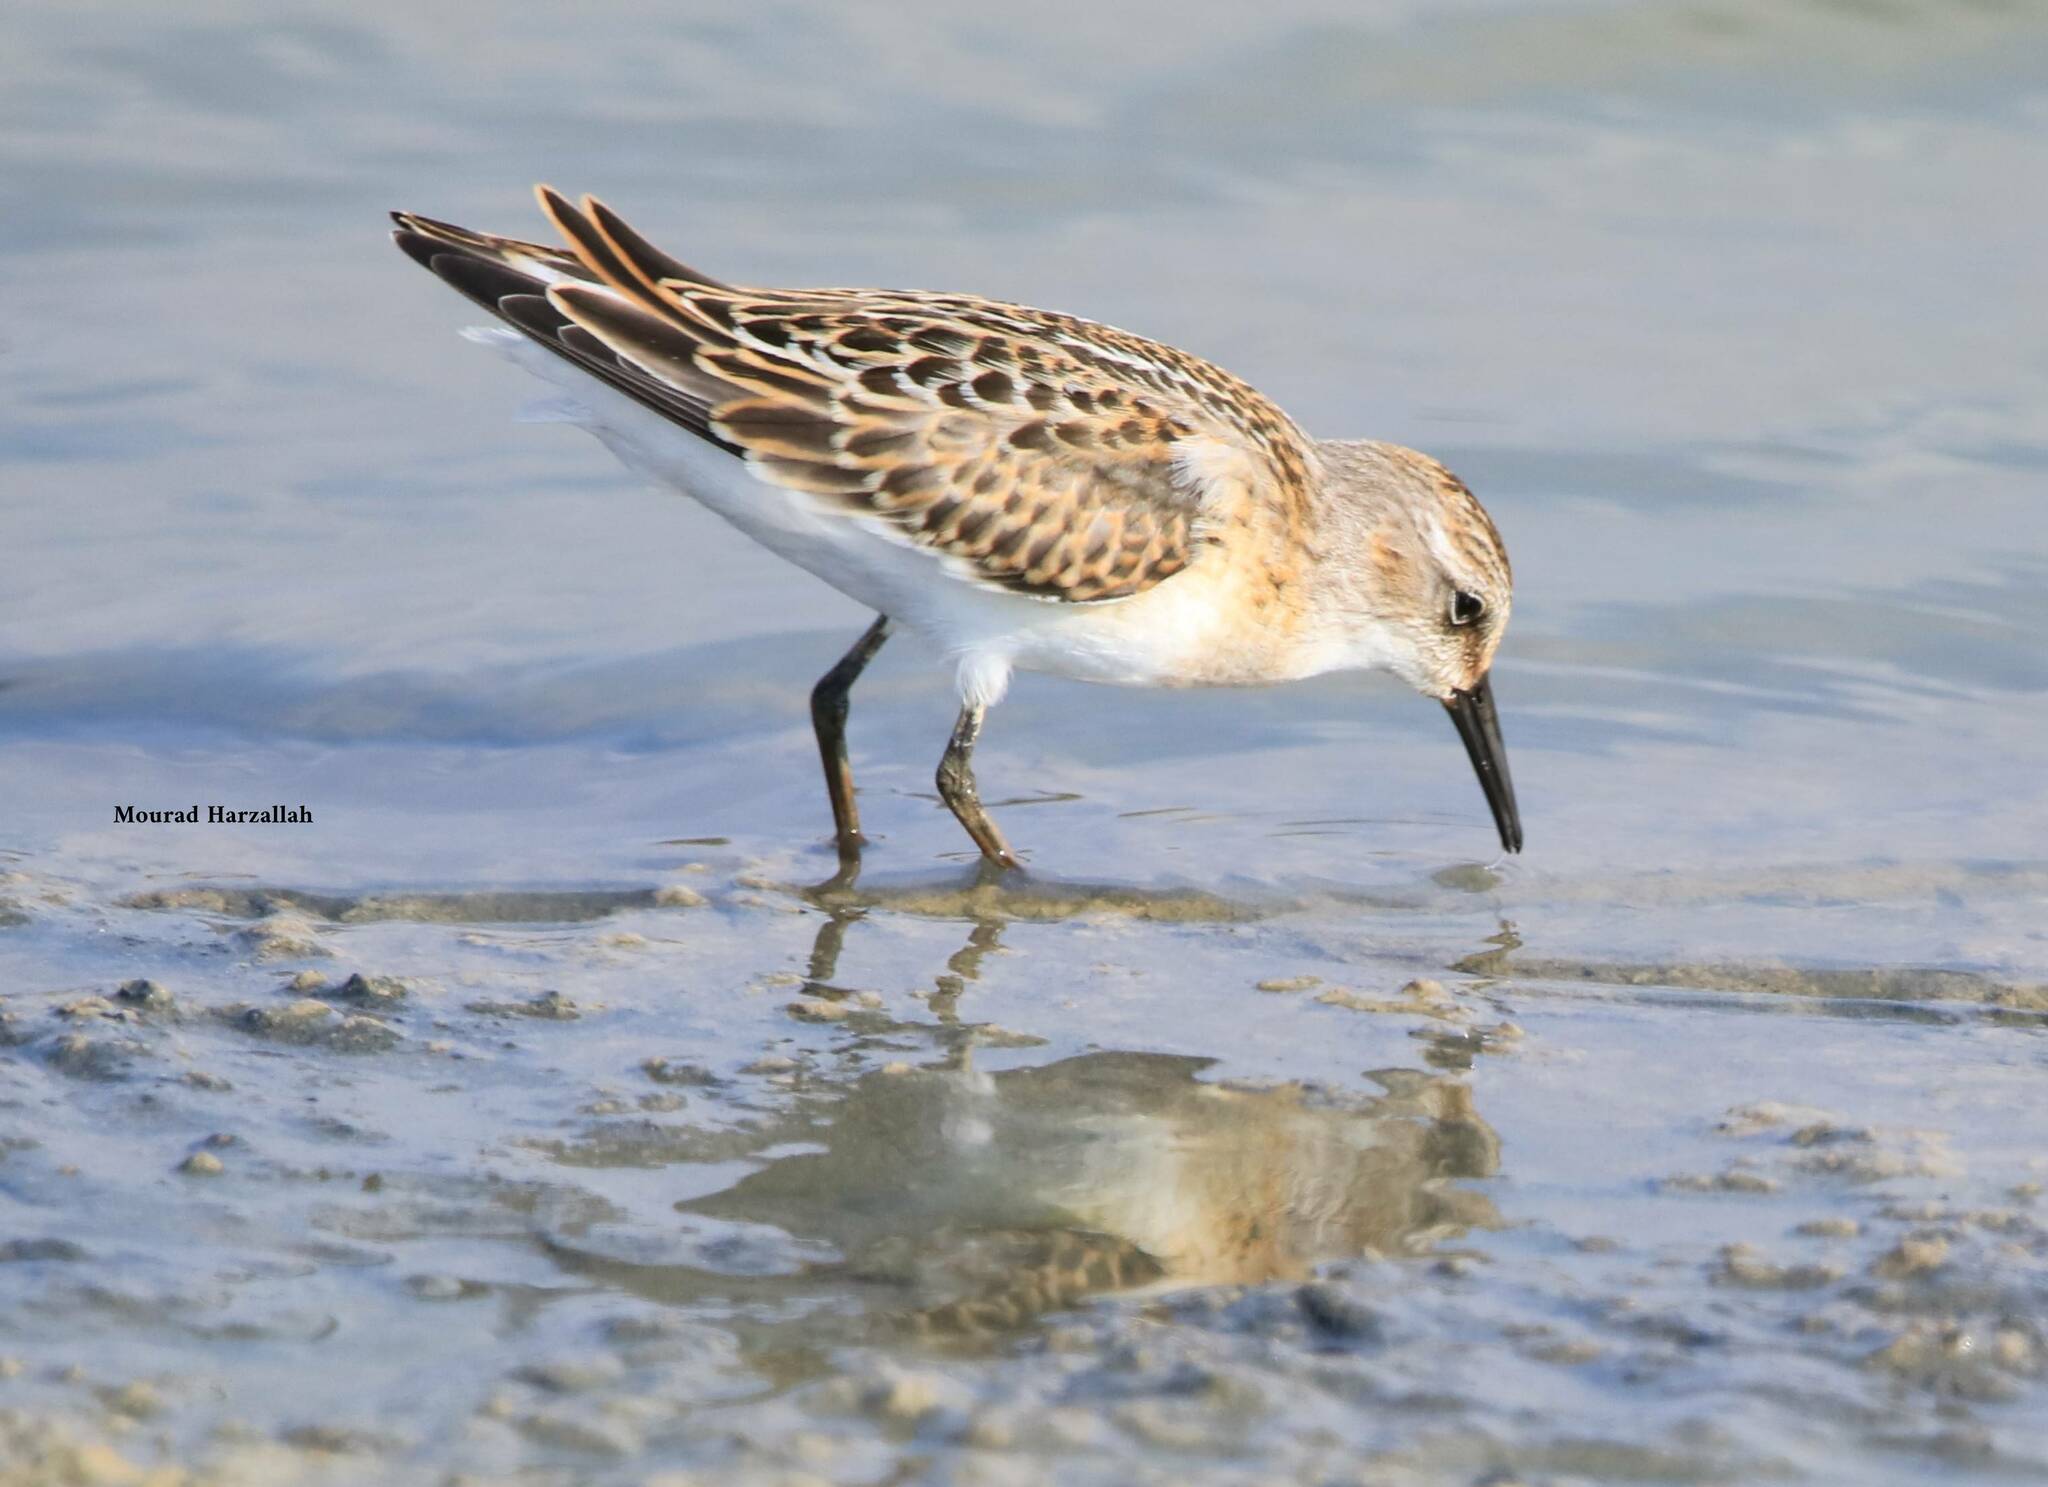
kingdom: Animalia
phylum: Chordata
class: Aves
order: Charadriiformes
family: Scolopacidae
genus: Calidris
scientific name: Calidris minuta
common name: Little stint
